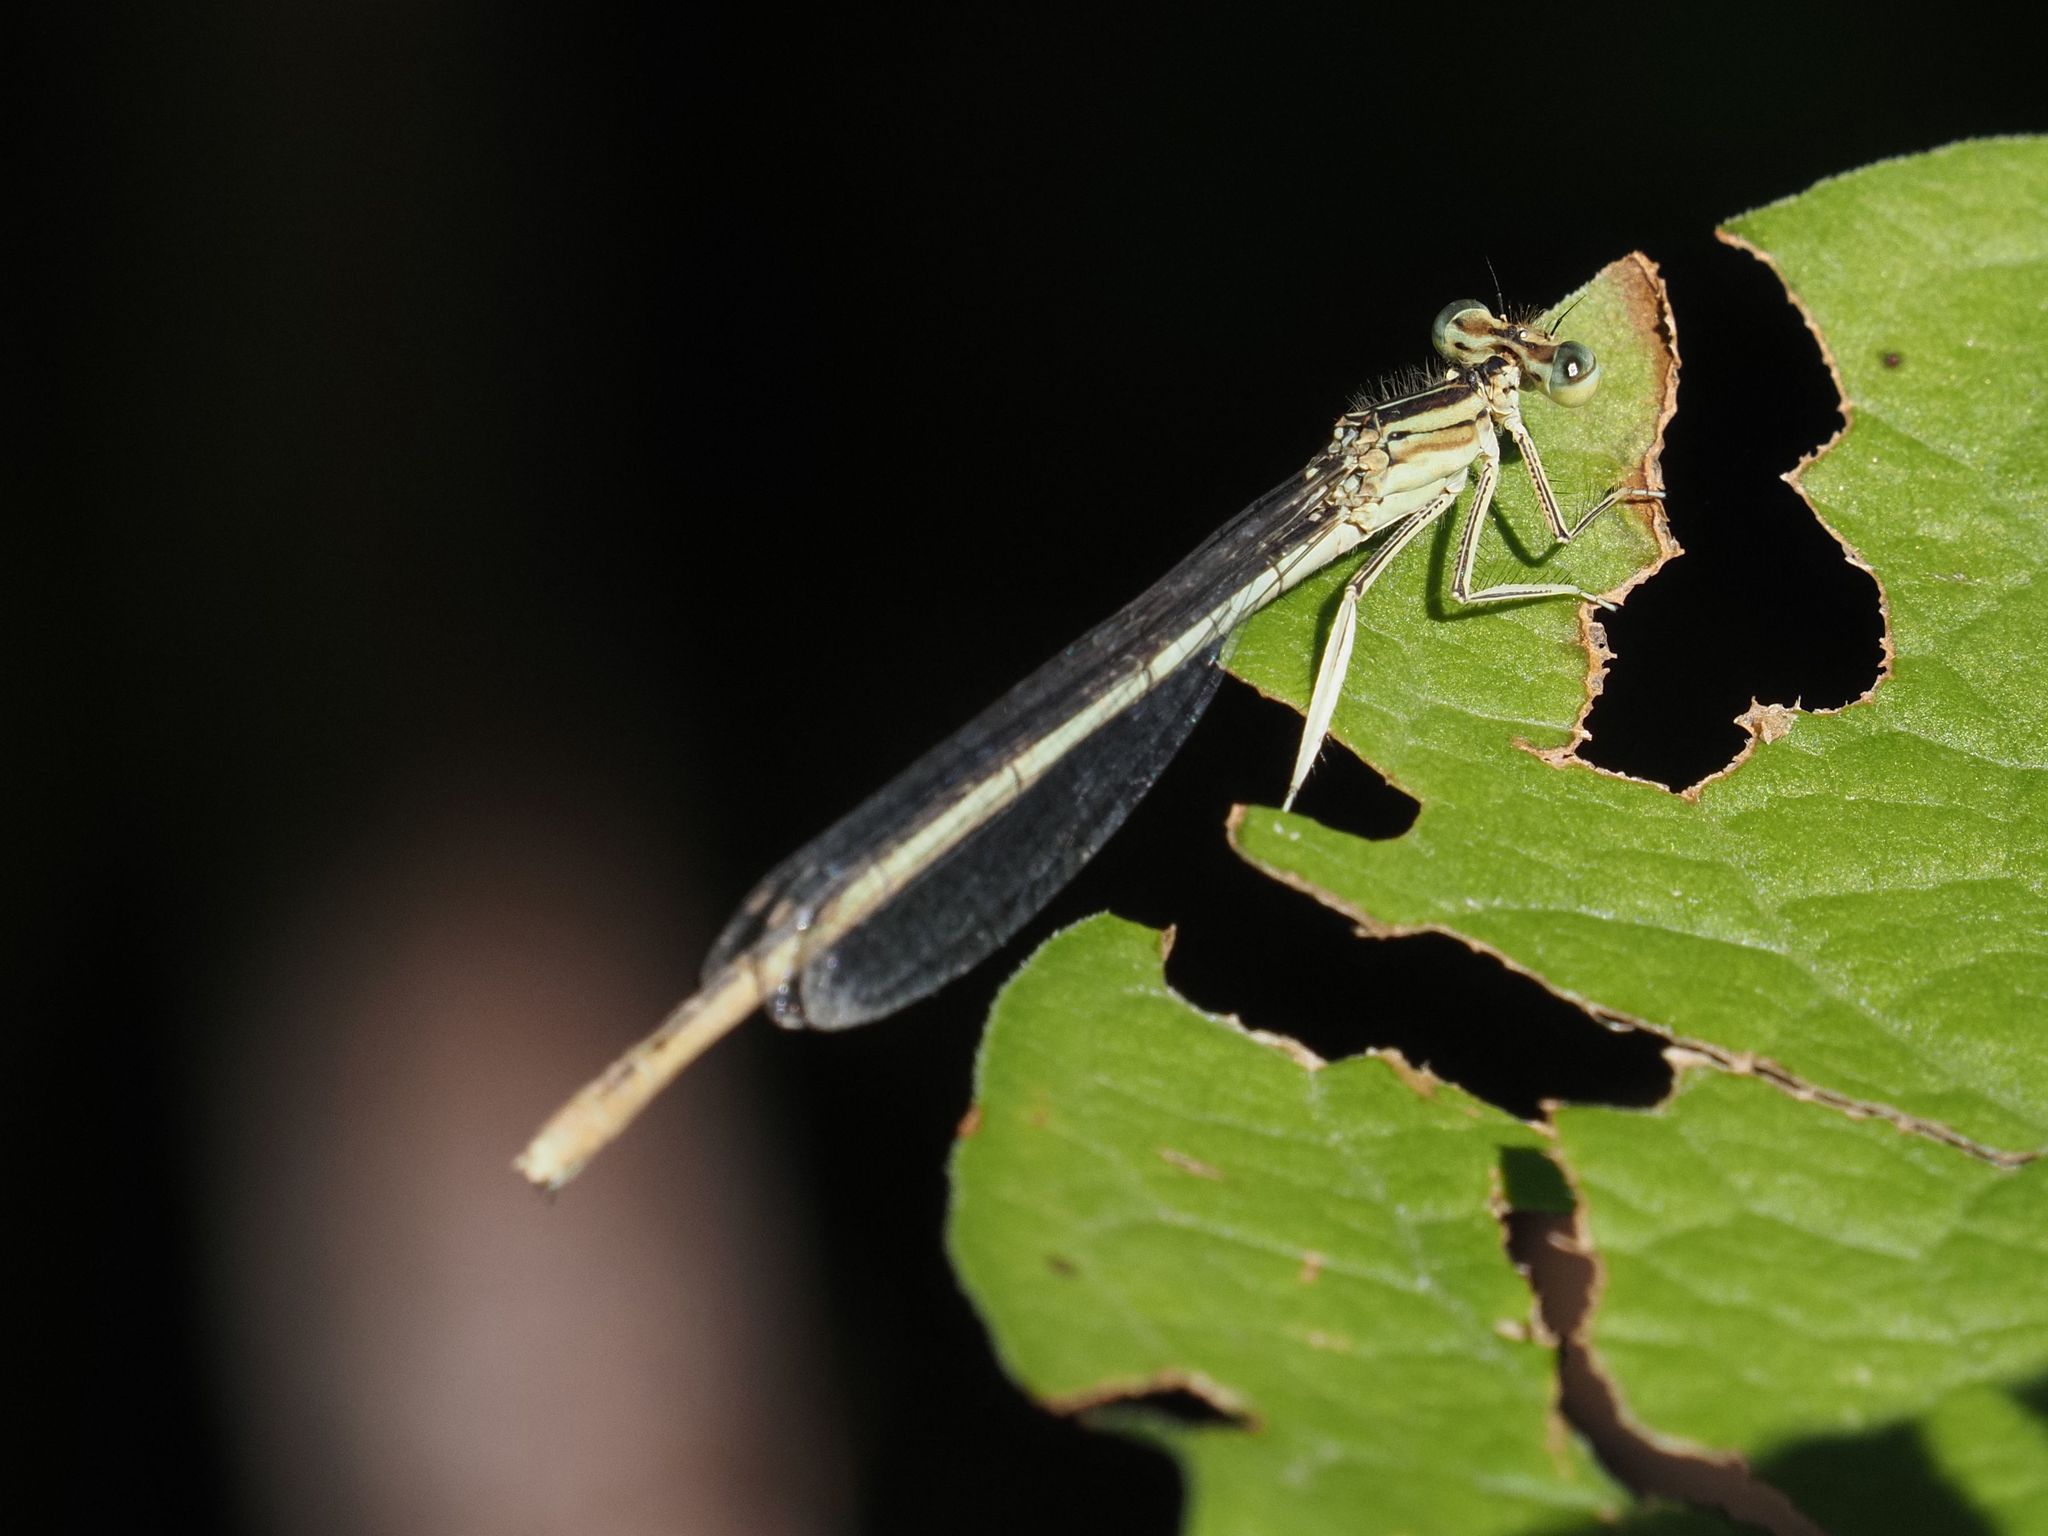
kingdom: Animalia
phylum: Arthropoda
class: Insecta
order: Odonata
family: Platycnemididae
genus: Platycnemis
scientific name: Platycnemis pennipes
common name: White-legged damselfly
